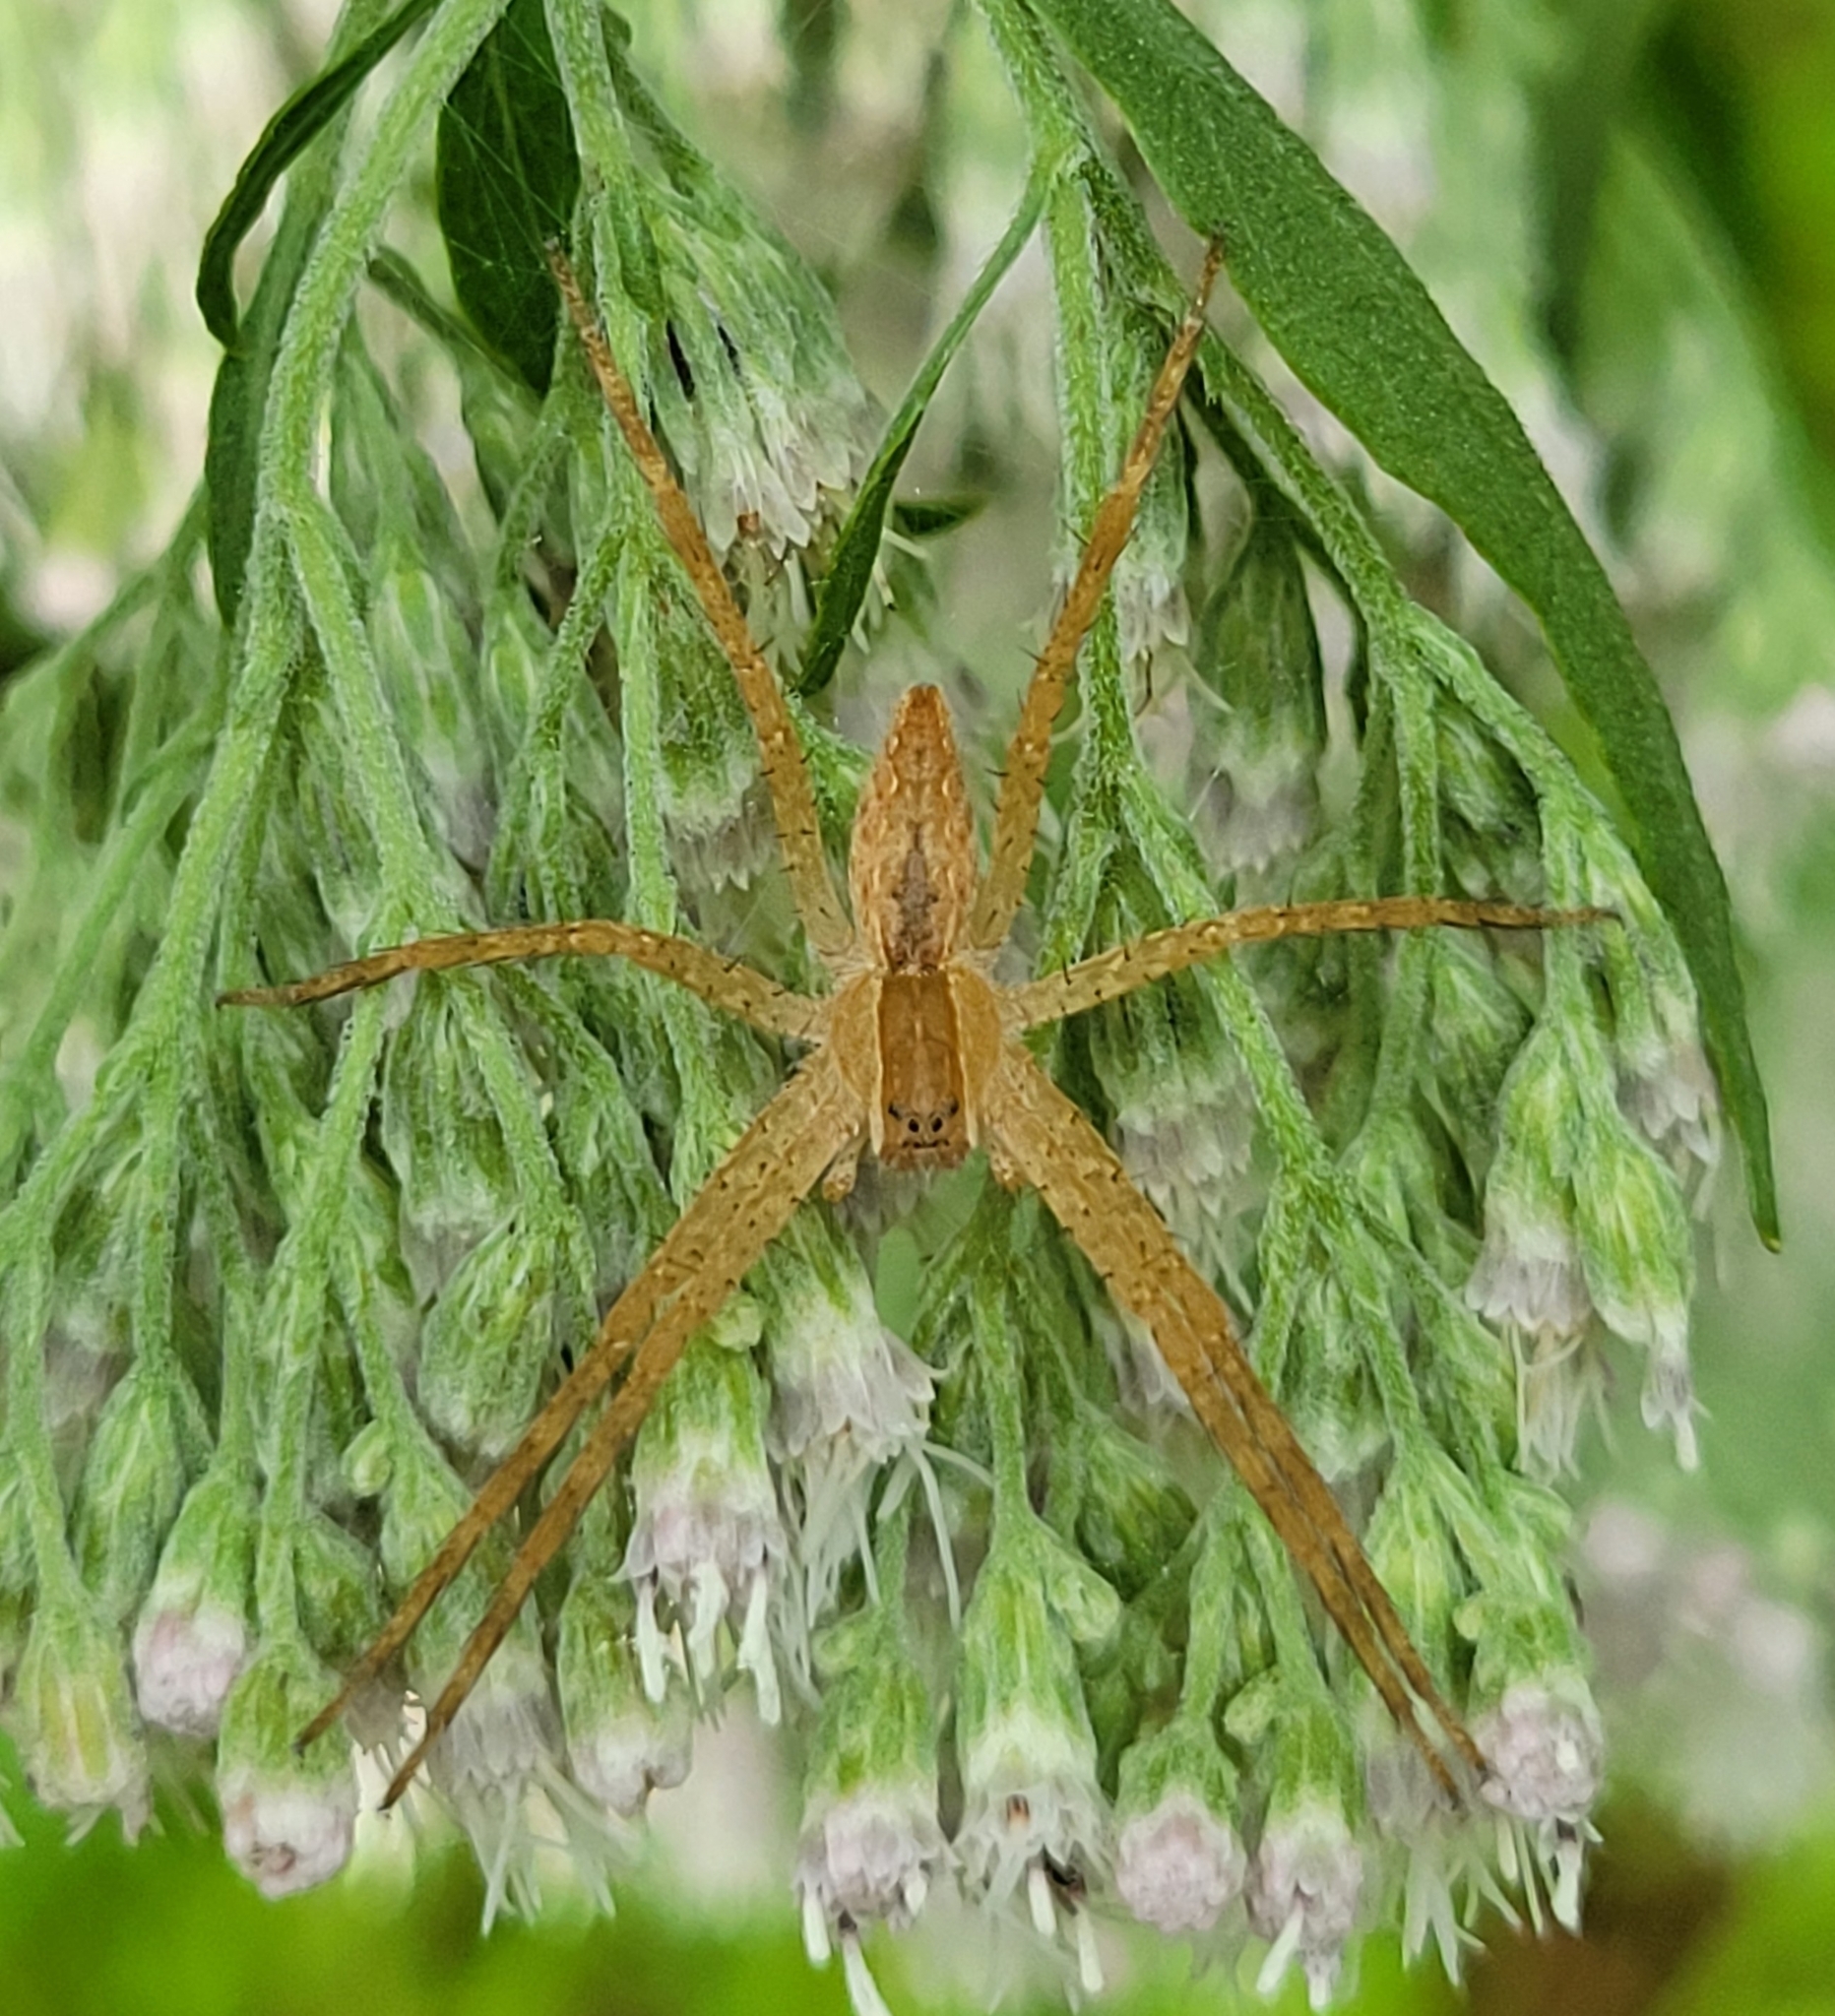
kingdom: Animalia
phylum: Arthropoda
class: Arachnida
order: Araneae
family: Pisauridae
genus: Pisaurina
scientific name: Pisaurina mira
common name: American nursery web spider
